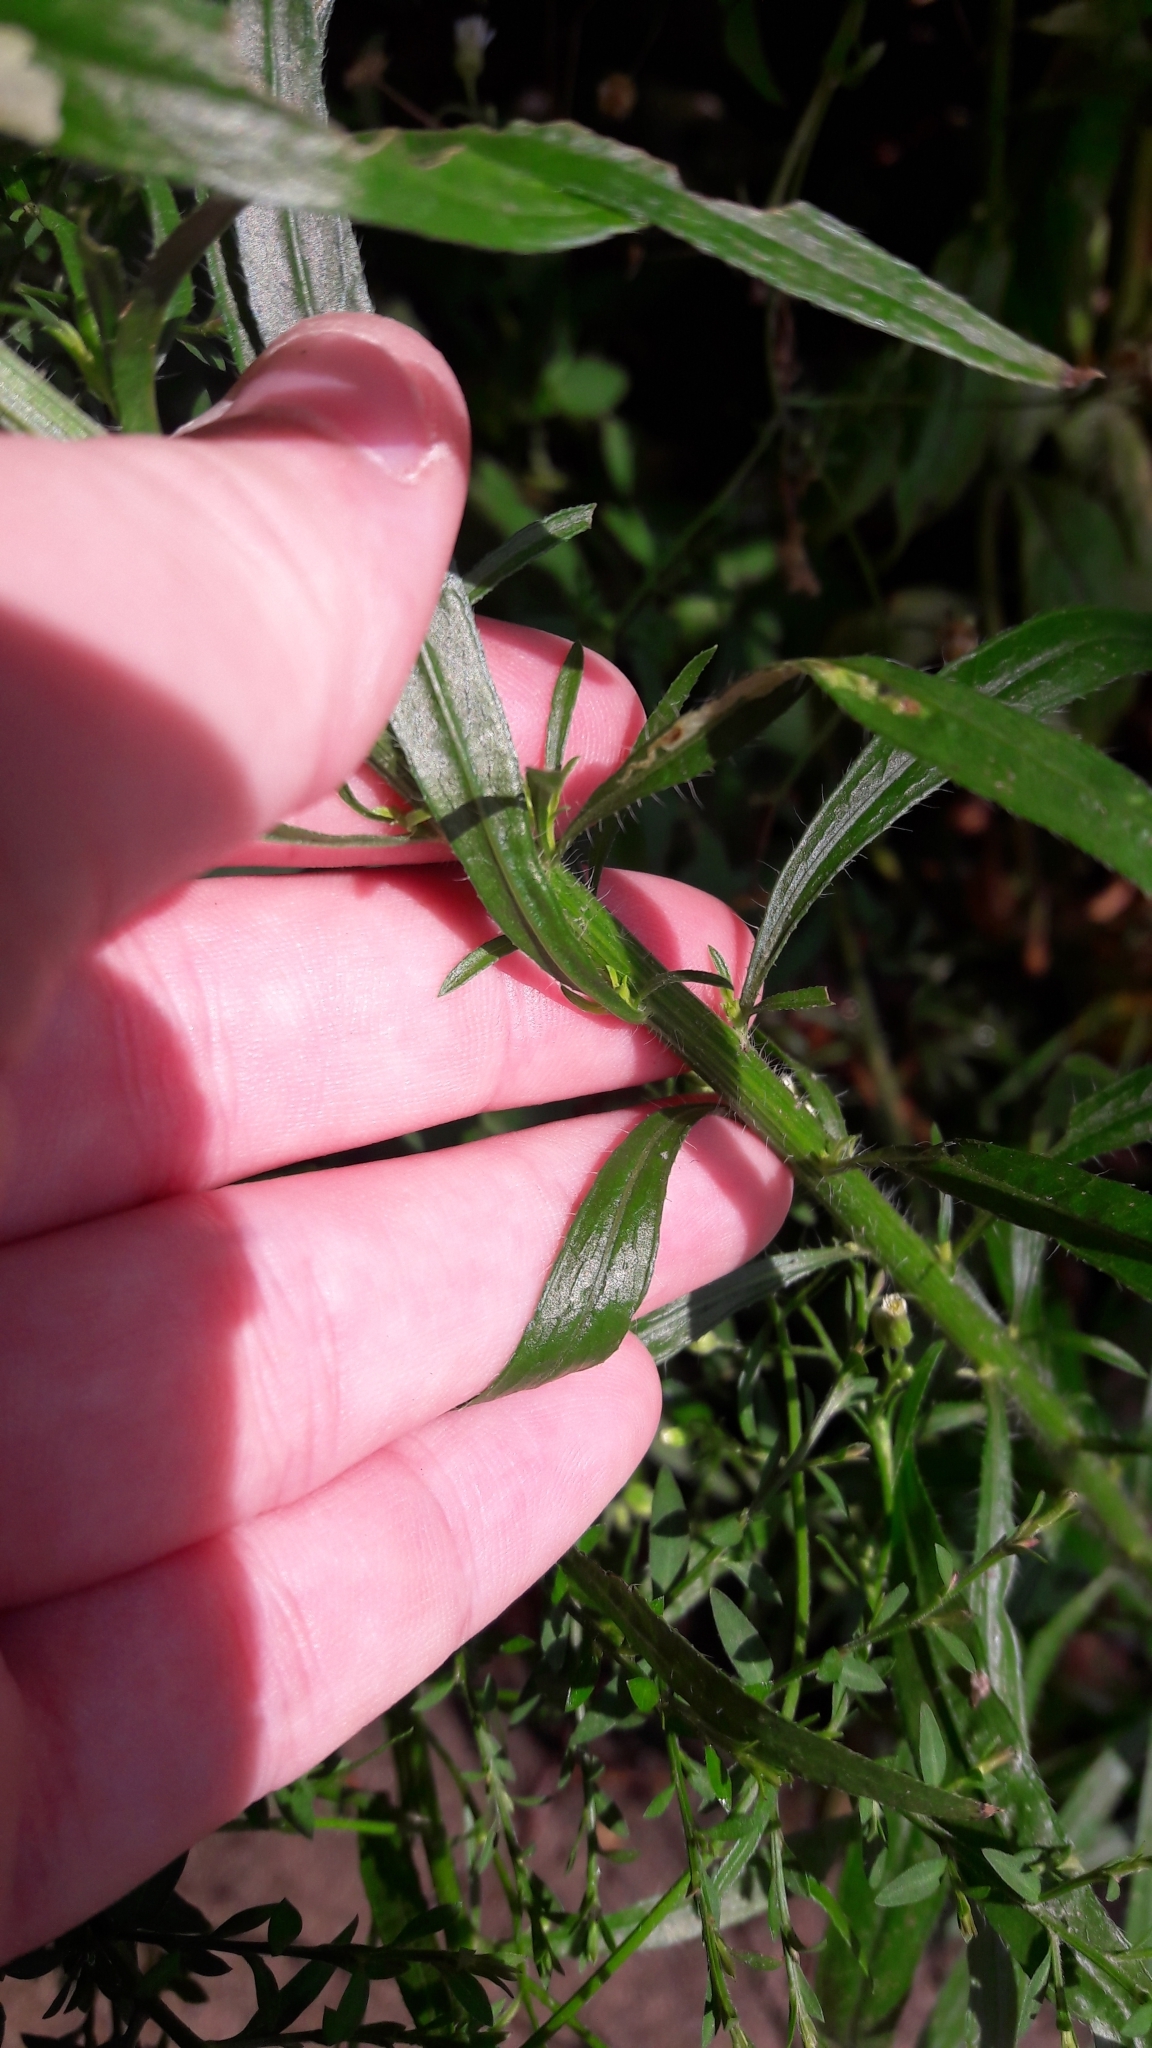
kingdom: Plantae
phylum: Tracheophyta
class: Magnoliopsida
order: Asterales
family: Asteraceae
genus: Erigeron
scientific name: Erigeron canadensis
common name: Canadian fleabane
